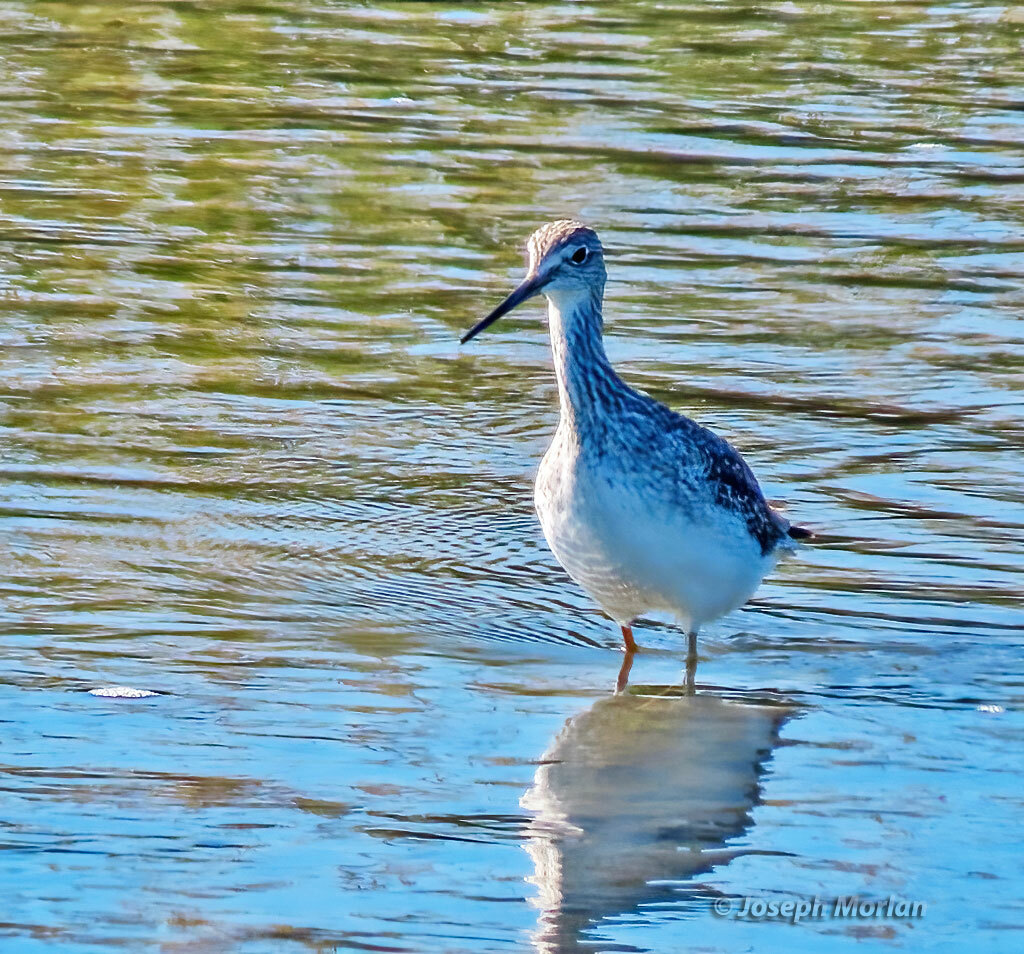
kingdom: Animalia
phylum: Chordata
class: Aves
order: Charadriiformes
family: Scolopacidae
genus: Tringa
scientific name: Tringa melanoleuca
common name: Greater yellowlegs
